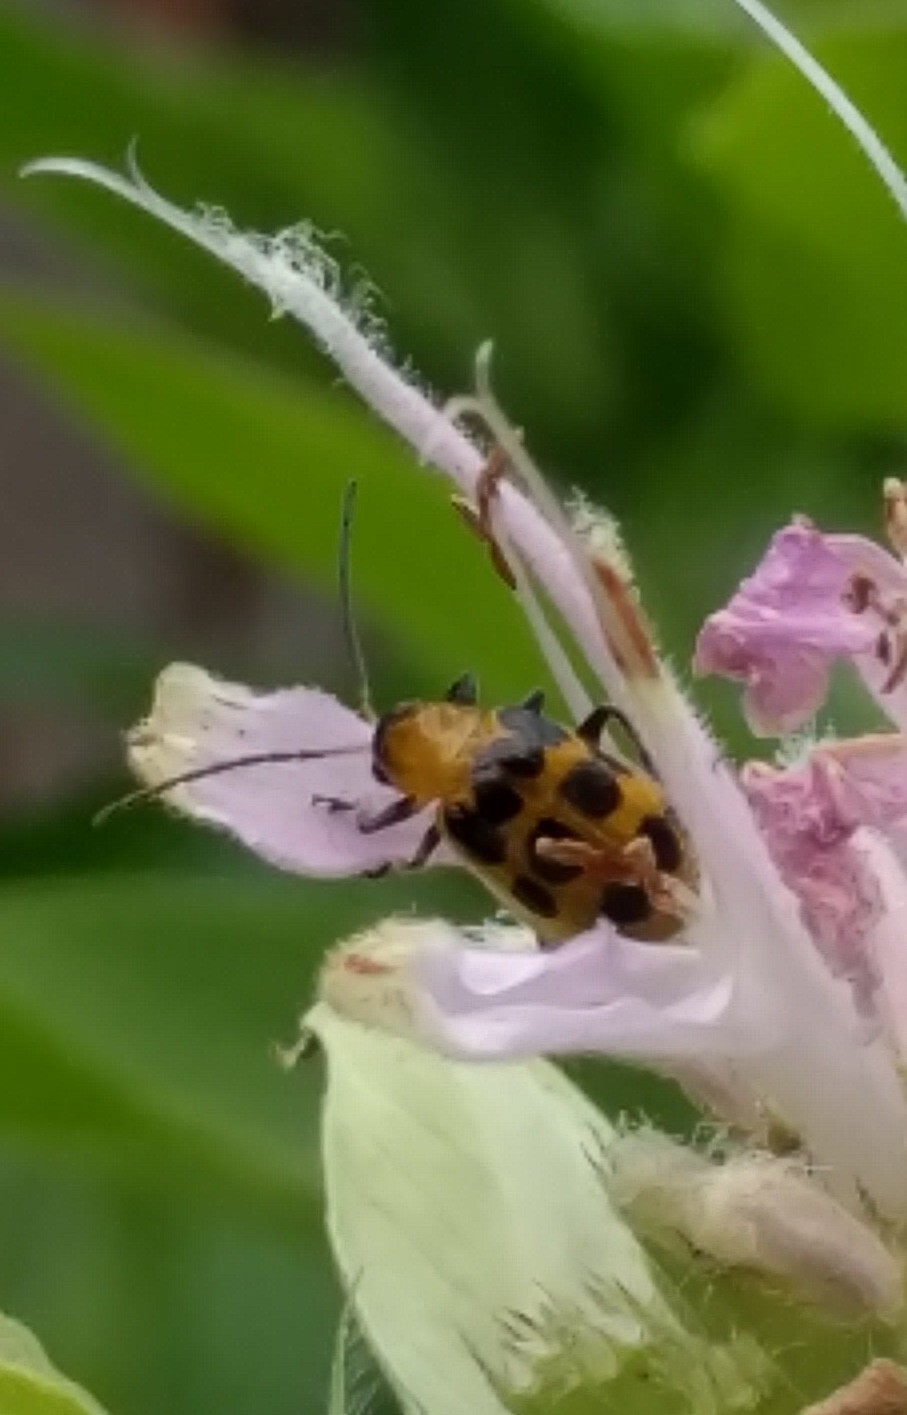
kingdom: Animalia
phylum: Arthropoda
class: Insecta
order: Coleoptera
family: Chrysomelidae
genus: Diabrotica
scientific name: Diabrotica undecimpunctata
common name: Spotted cucumber beetle
